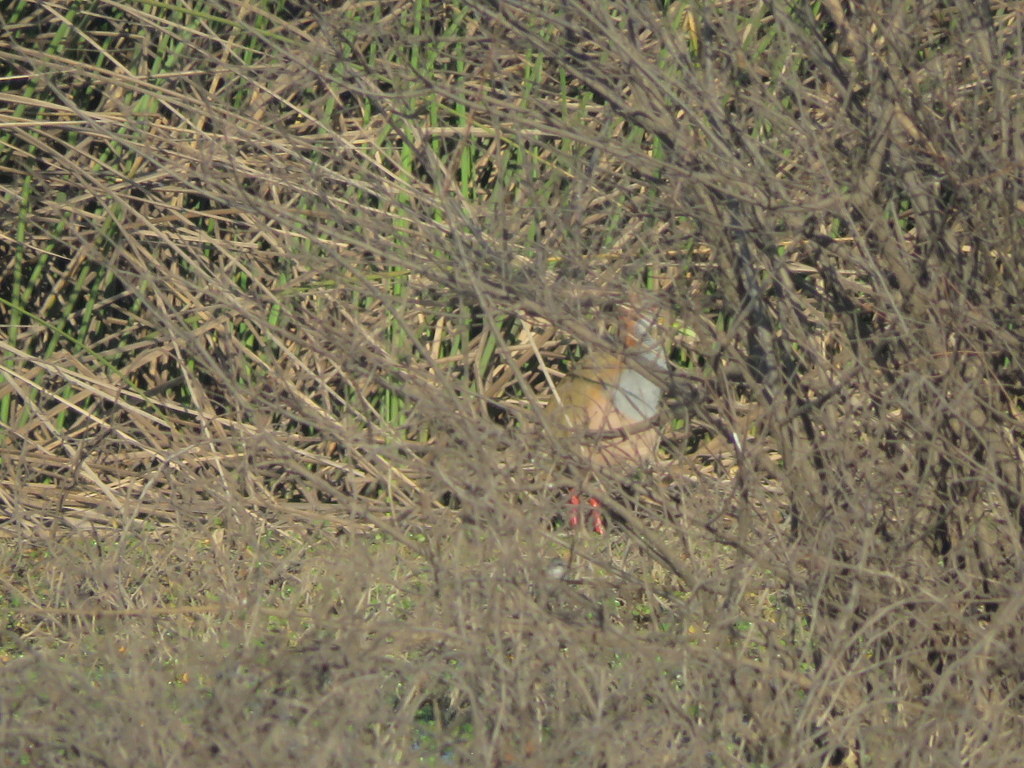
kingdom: Animalia
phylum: Chordata
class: Aves
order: Gruiformes
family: Rallidae
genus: Aramides
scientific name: Aramides ypecaha
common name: Giant wood rail
